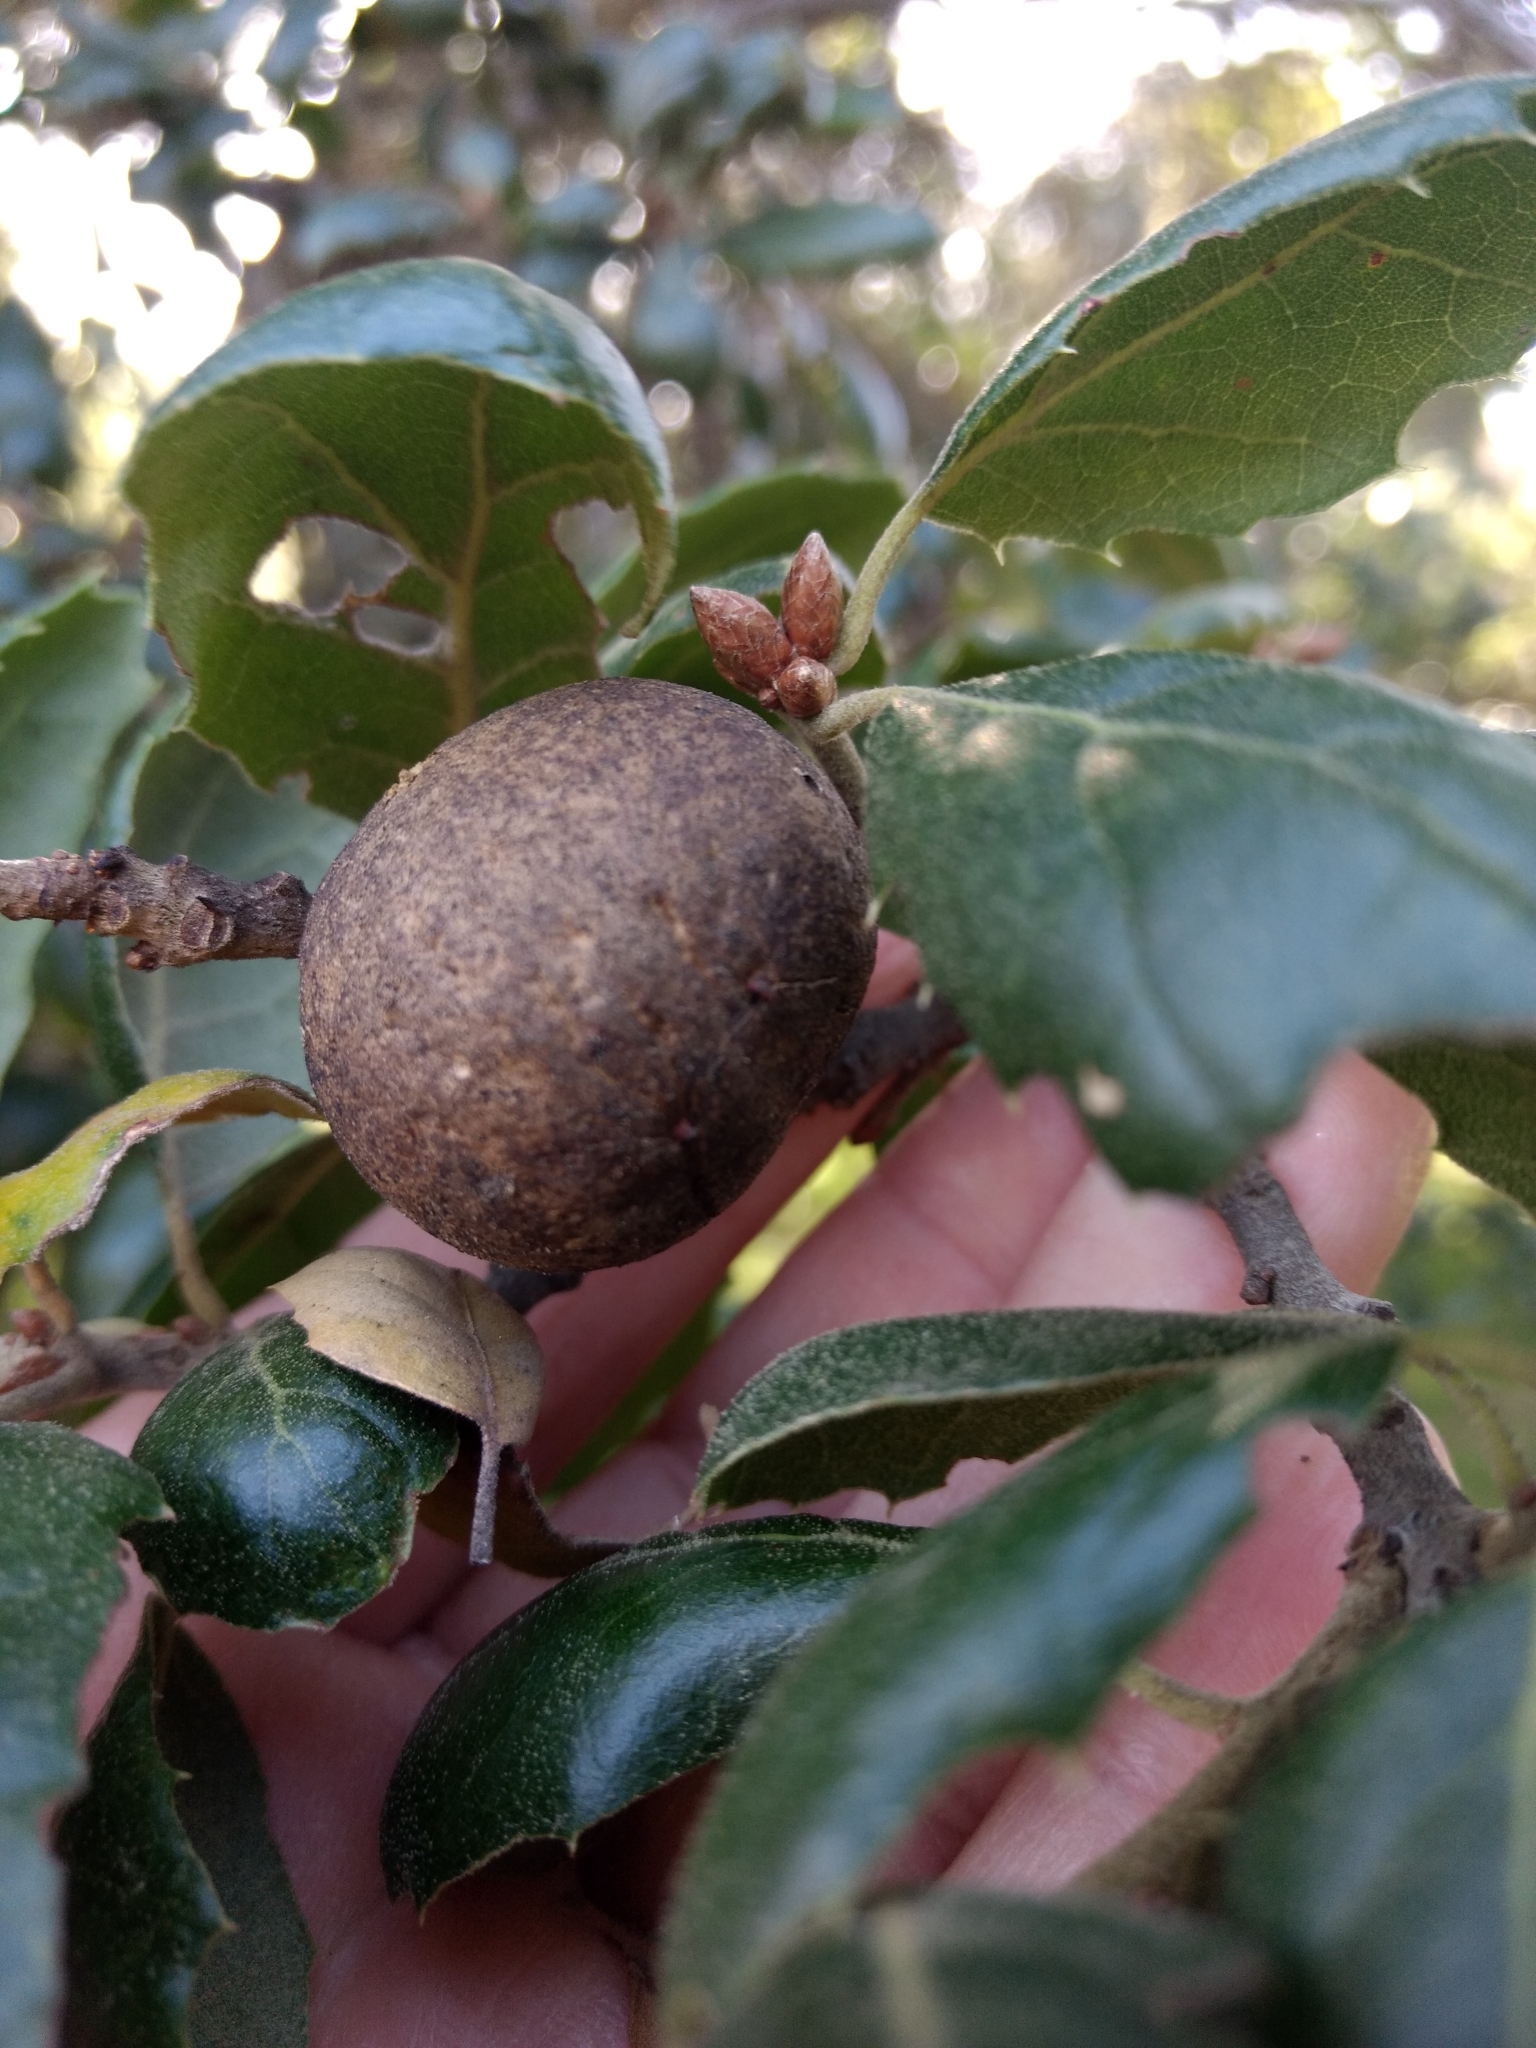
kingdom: Animalia
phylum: Arthropoda
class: Insecta
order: Hymenoptera
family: Cynipidae
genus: Amphibolips
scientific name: Amphibolips quercuspomiformis
